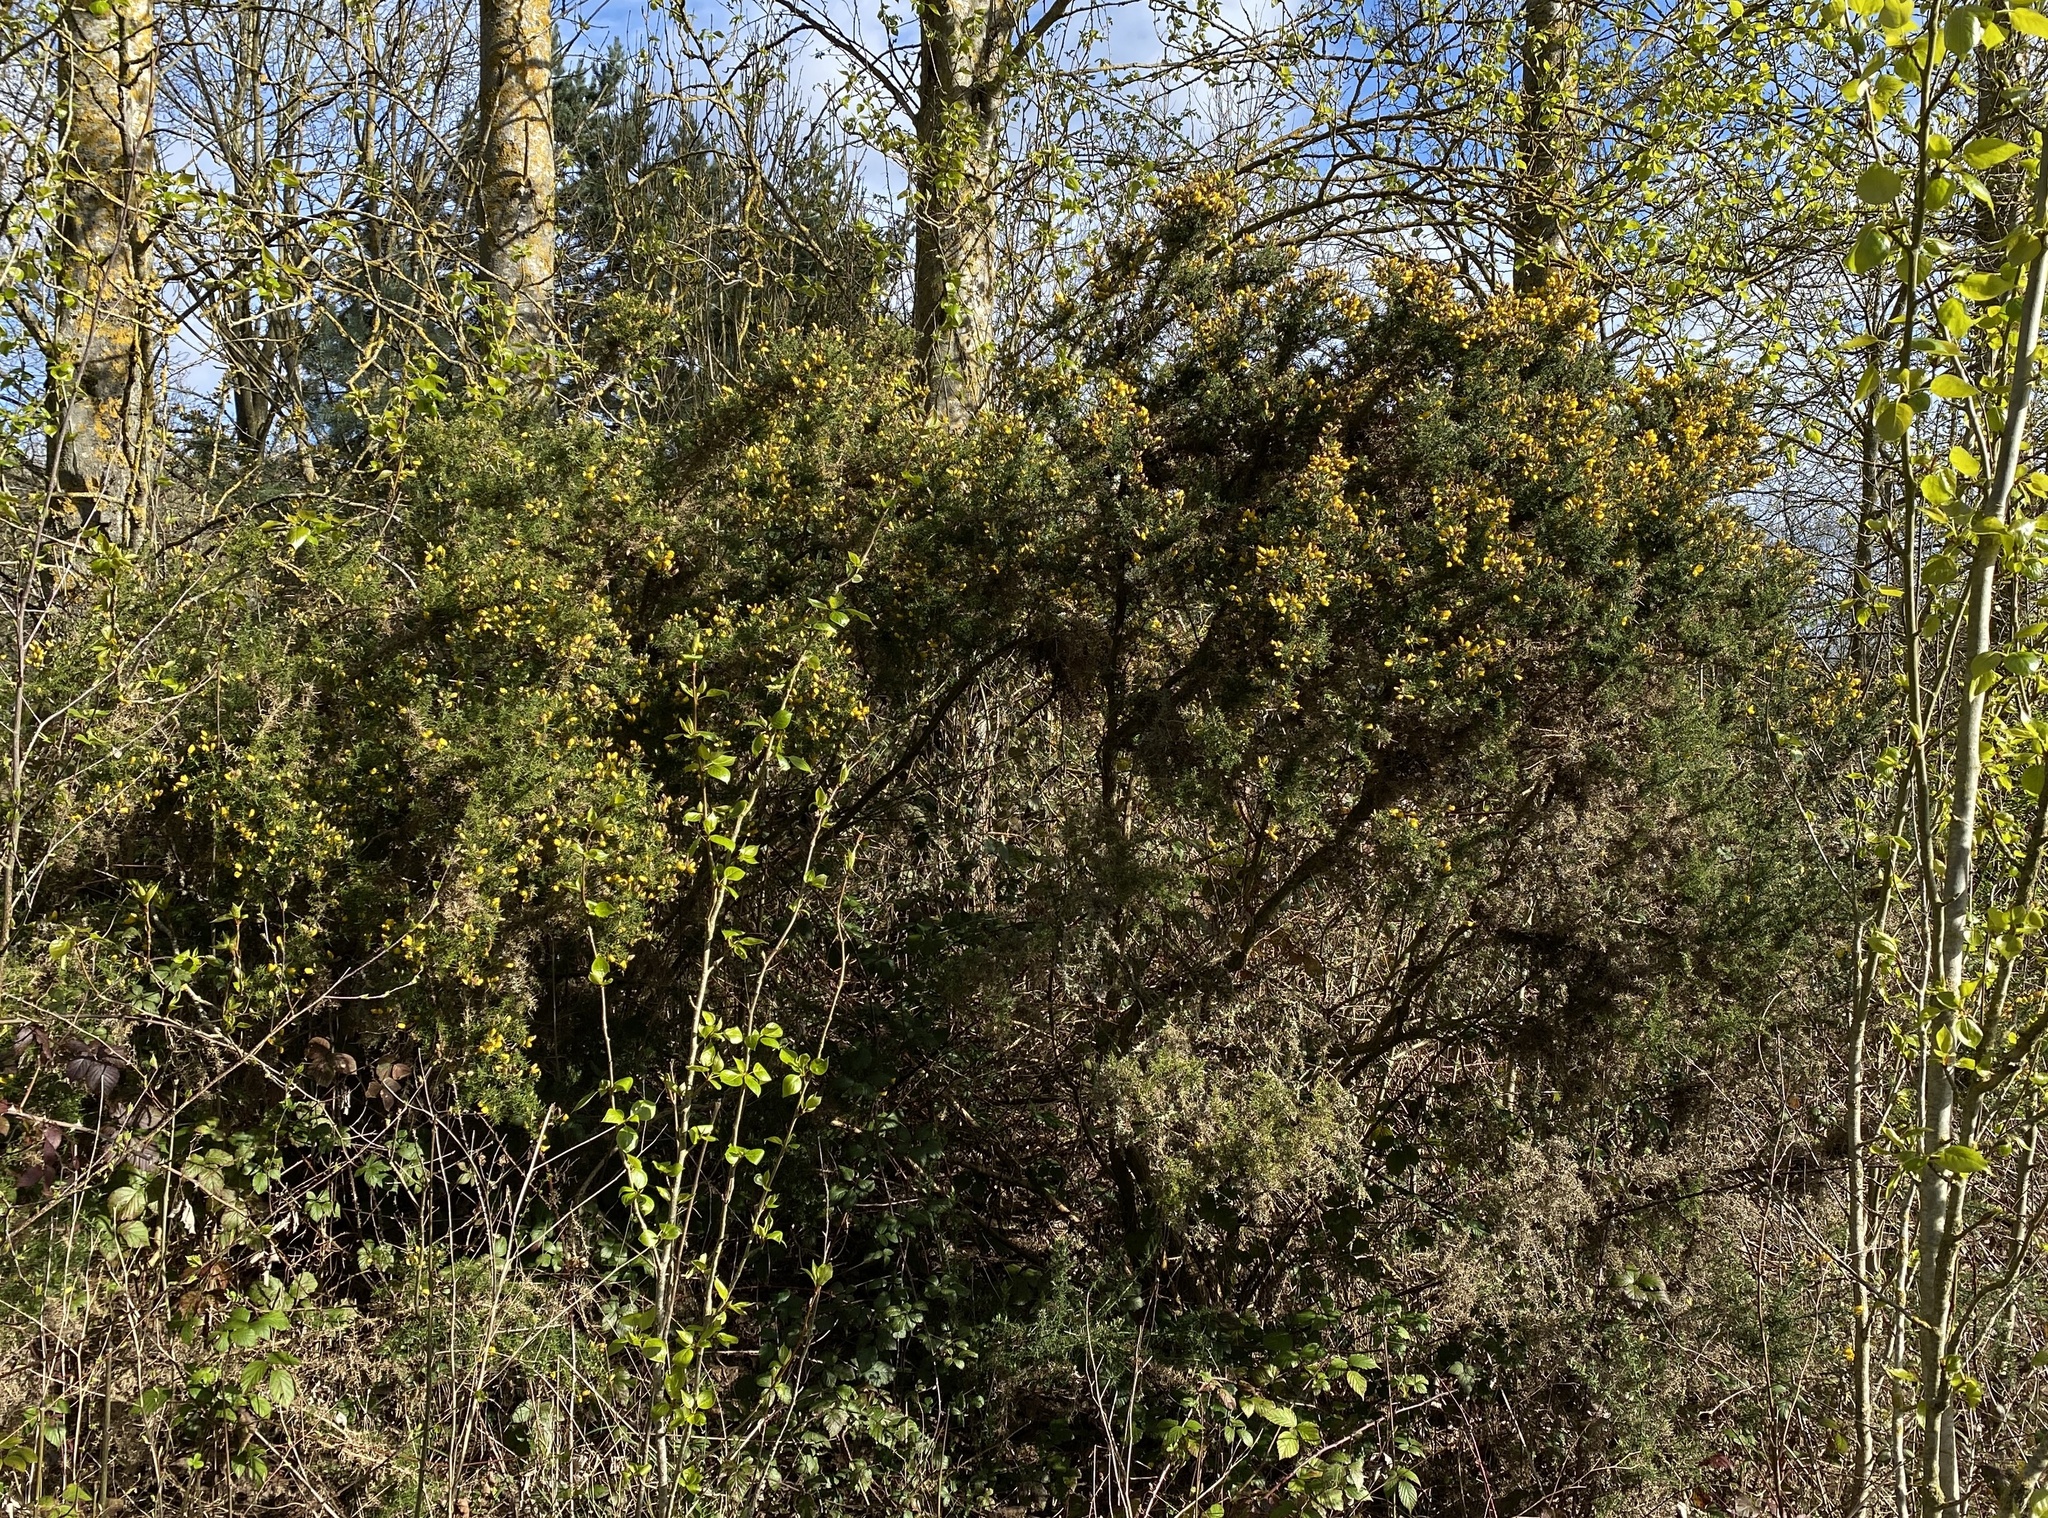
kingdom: Plantae
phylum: Tracheophyta
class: Magnoliopsida
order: Fabales
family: Fabaceae
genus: Ulex
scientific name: Ulex europaeus
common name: Common gorse
